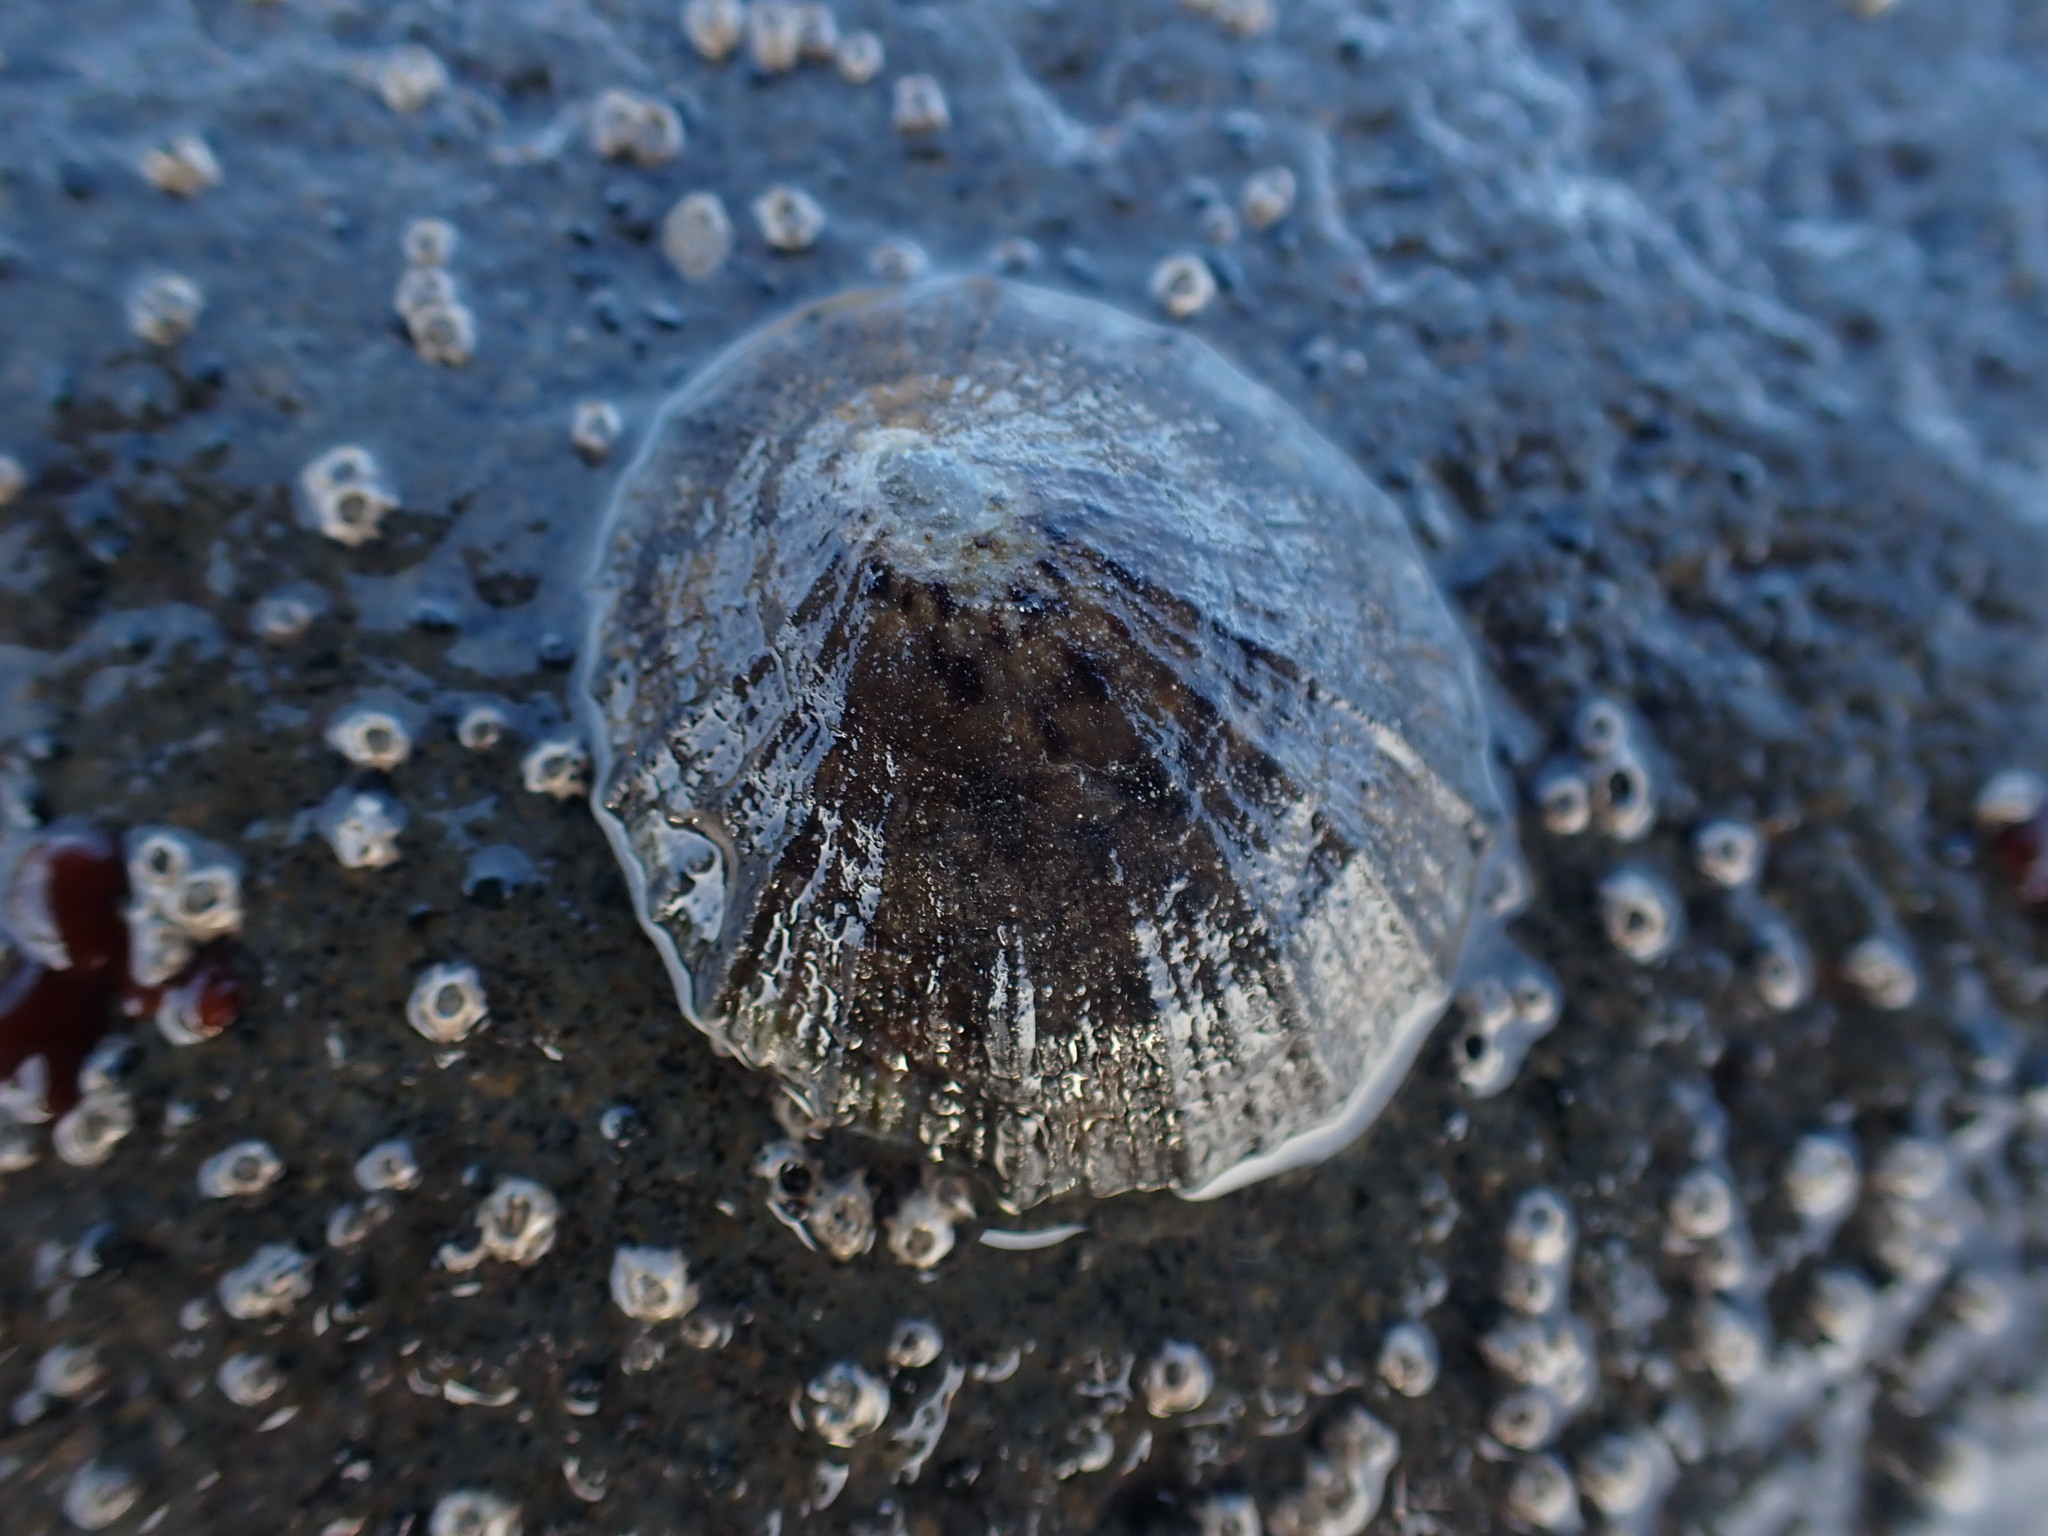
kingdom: Animalia
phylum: Mollusca
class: Gastropoda
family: Nacellidae
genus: Cellana
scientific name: Cellana radians
